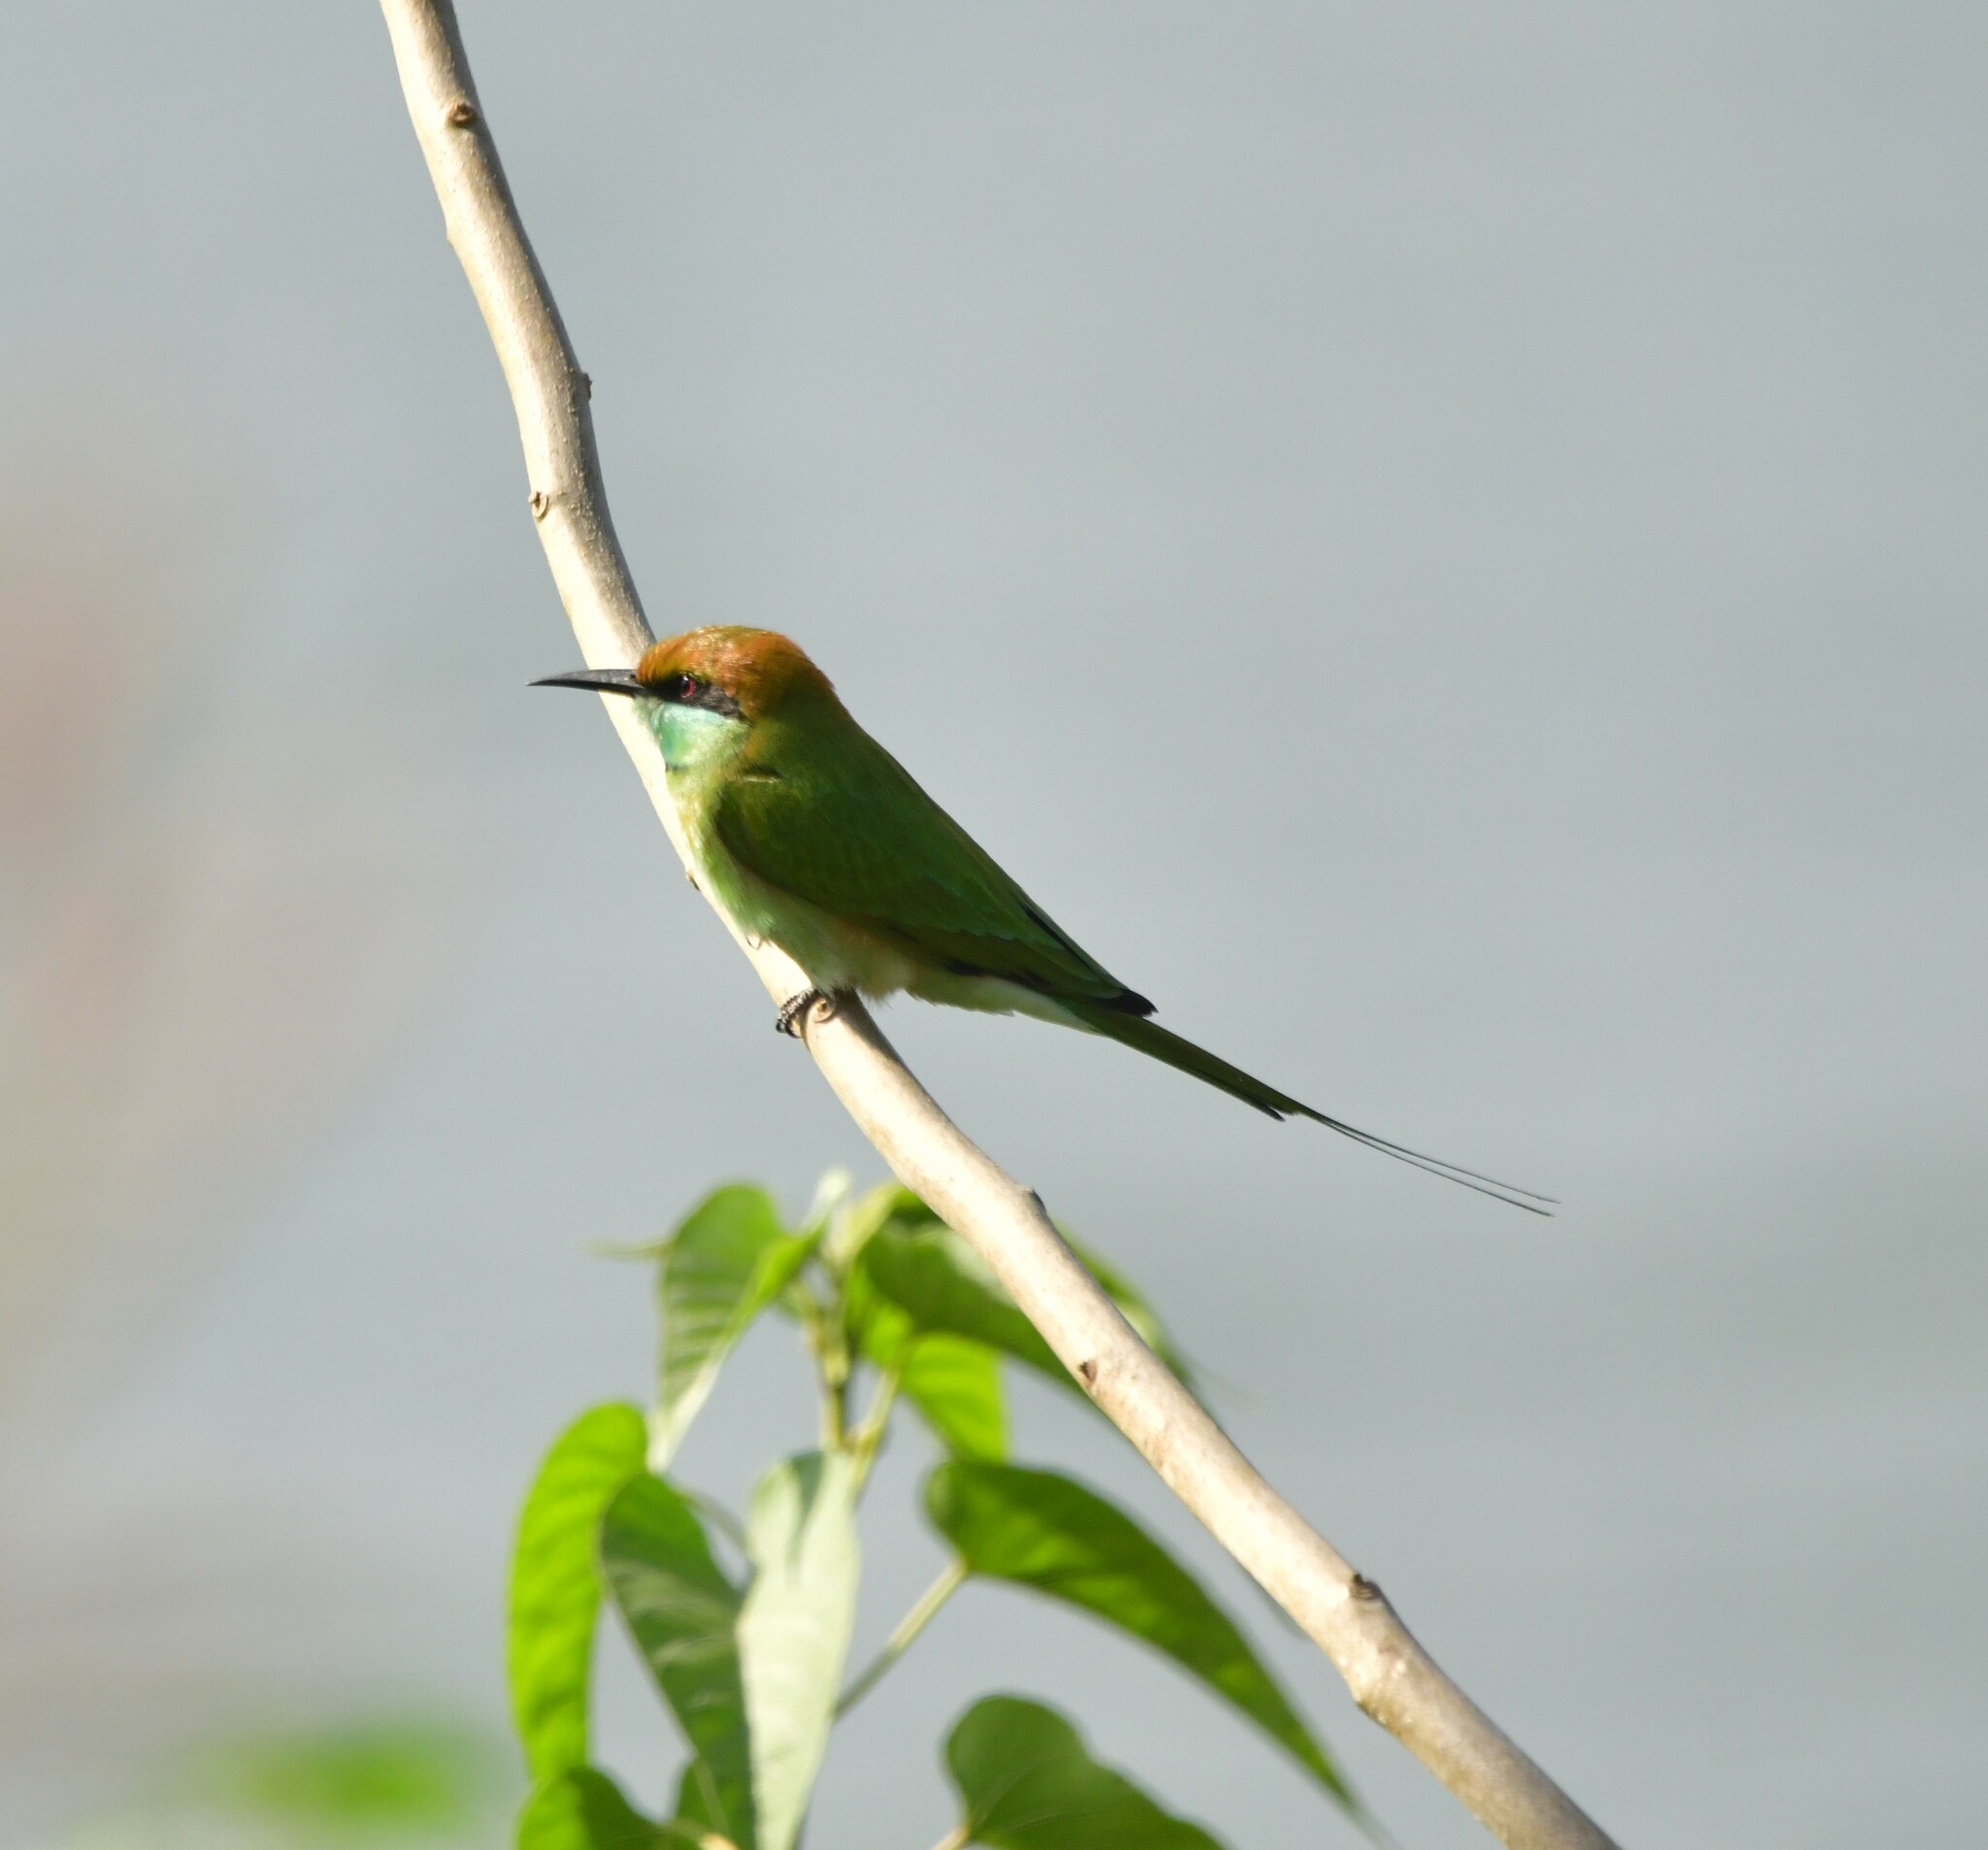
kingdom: Animalia
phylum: Chordata
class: Aves
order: Coraciiformes
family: Meropidae
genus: Merops
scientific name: Merops orientalis
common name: Green bee-eater
